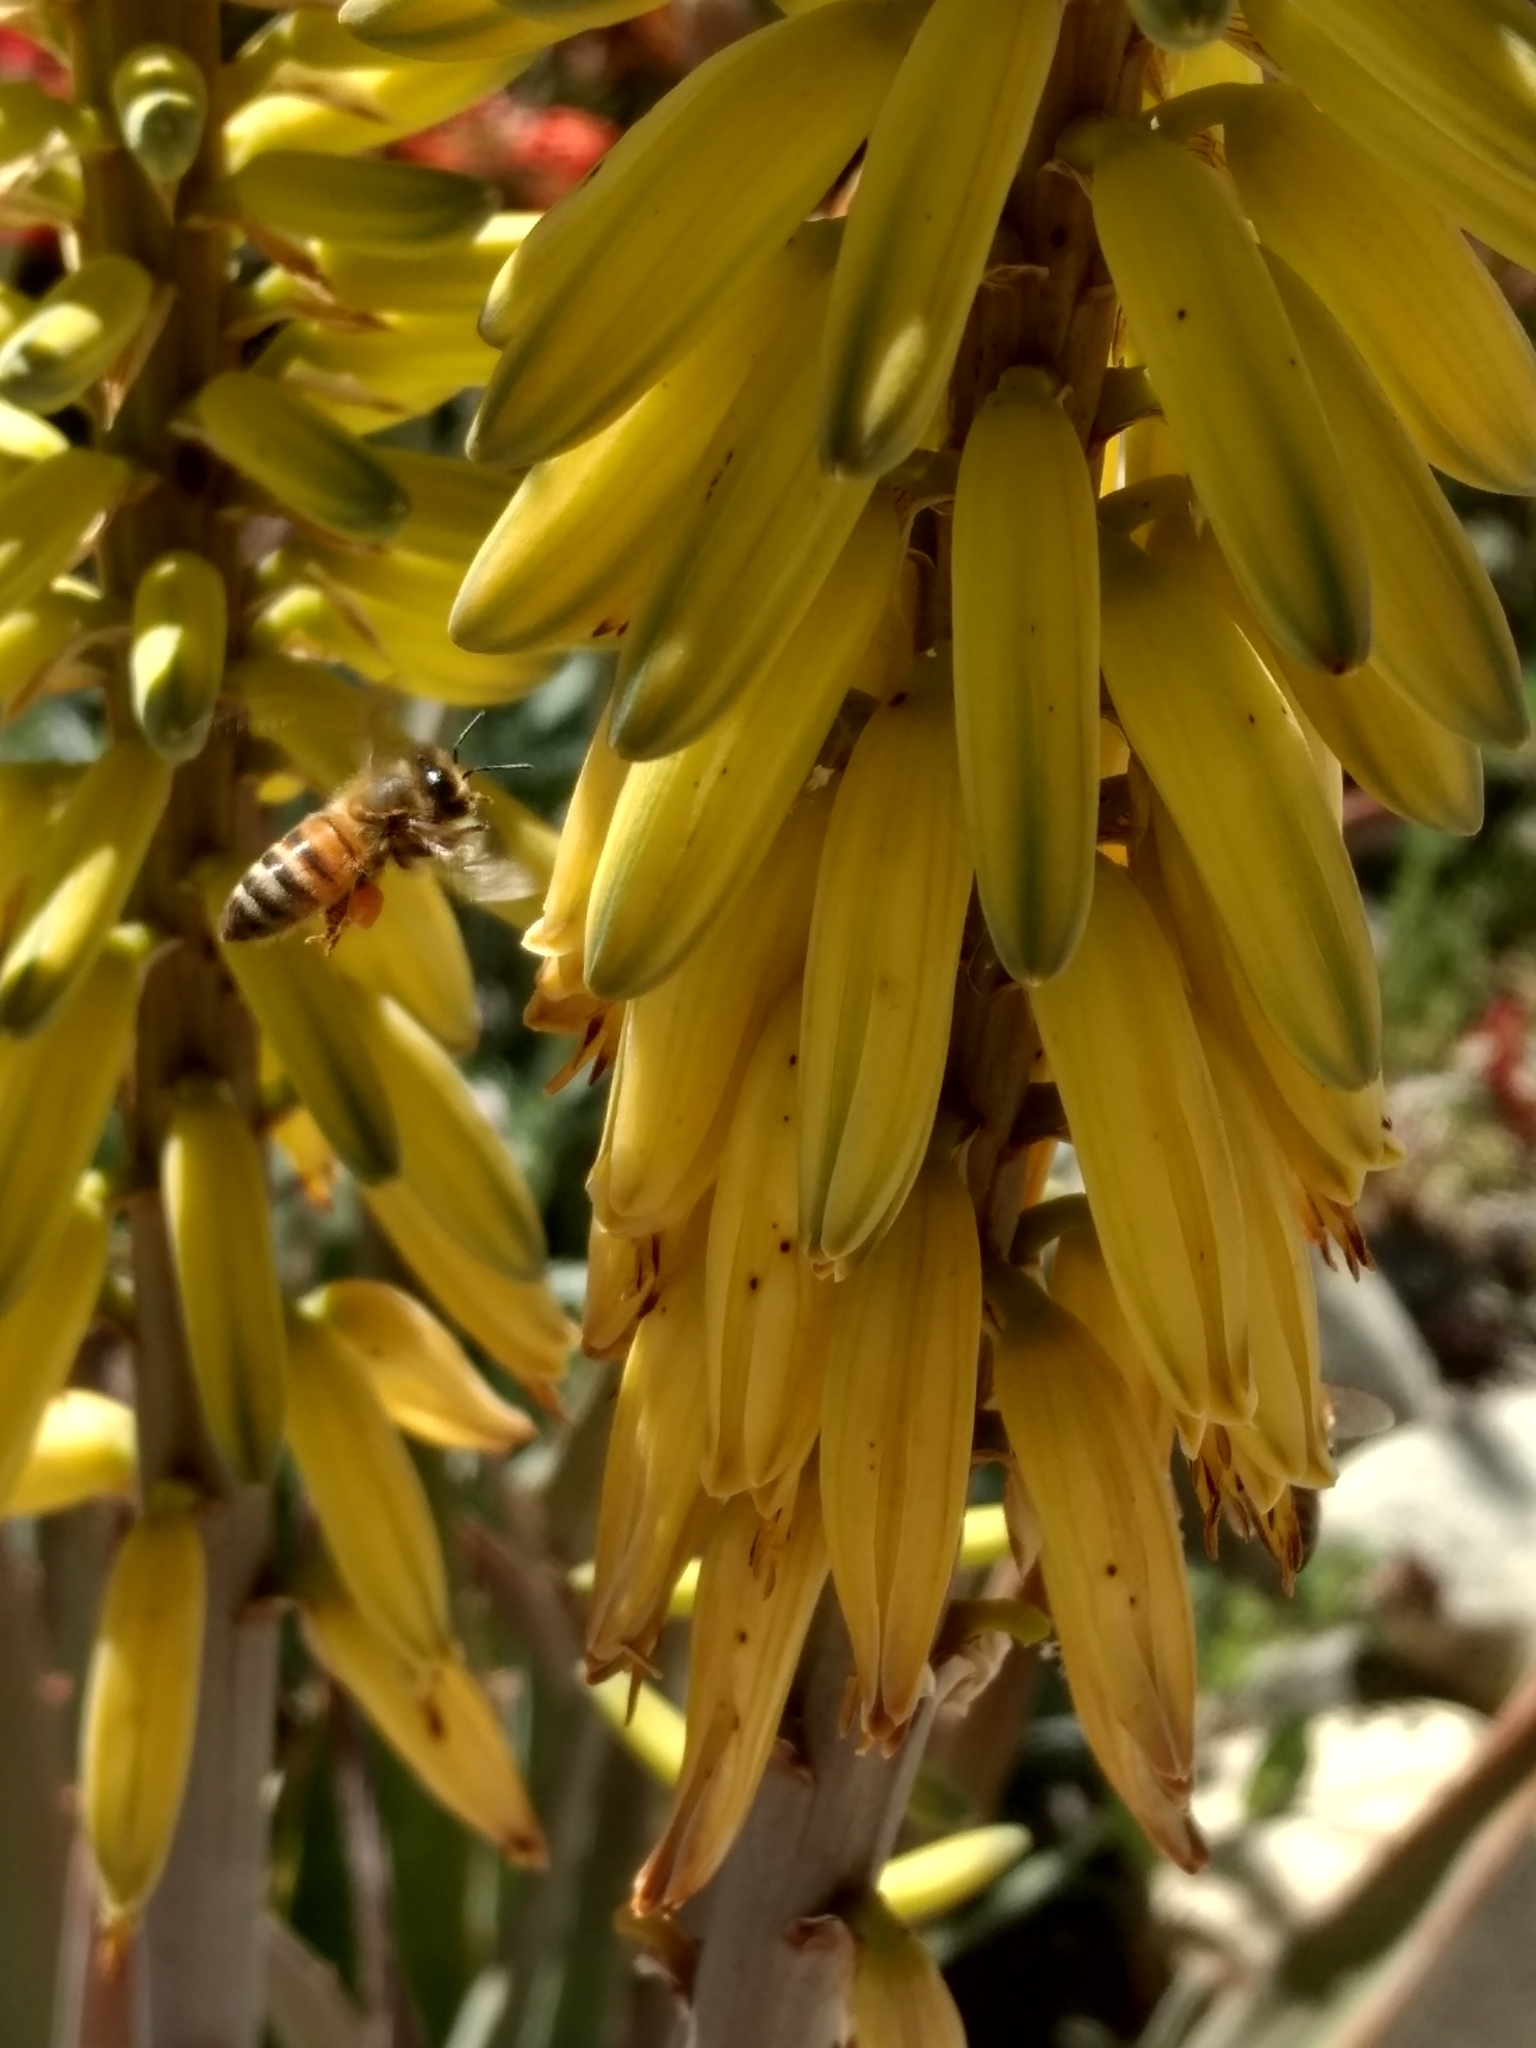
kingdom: Animalia
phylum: Arthropoda
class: Insecta
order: Hymenoptera
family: Apidae
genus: Apis
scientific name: Apis mellifera
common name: Honey bee
